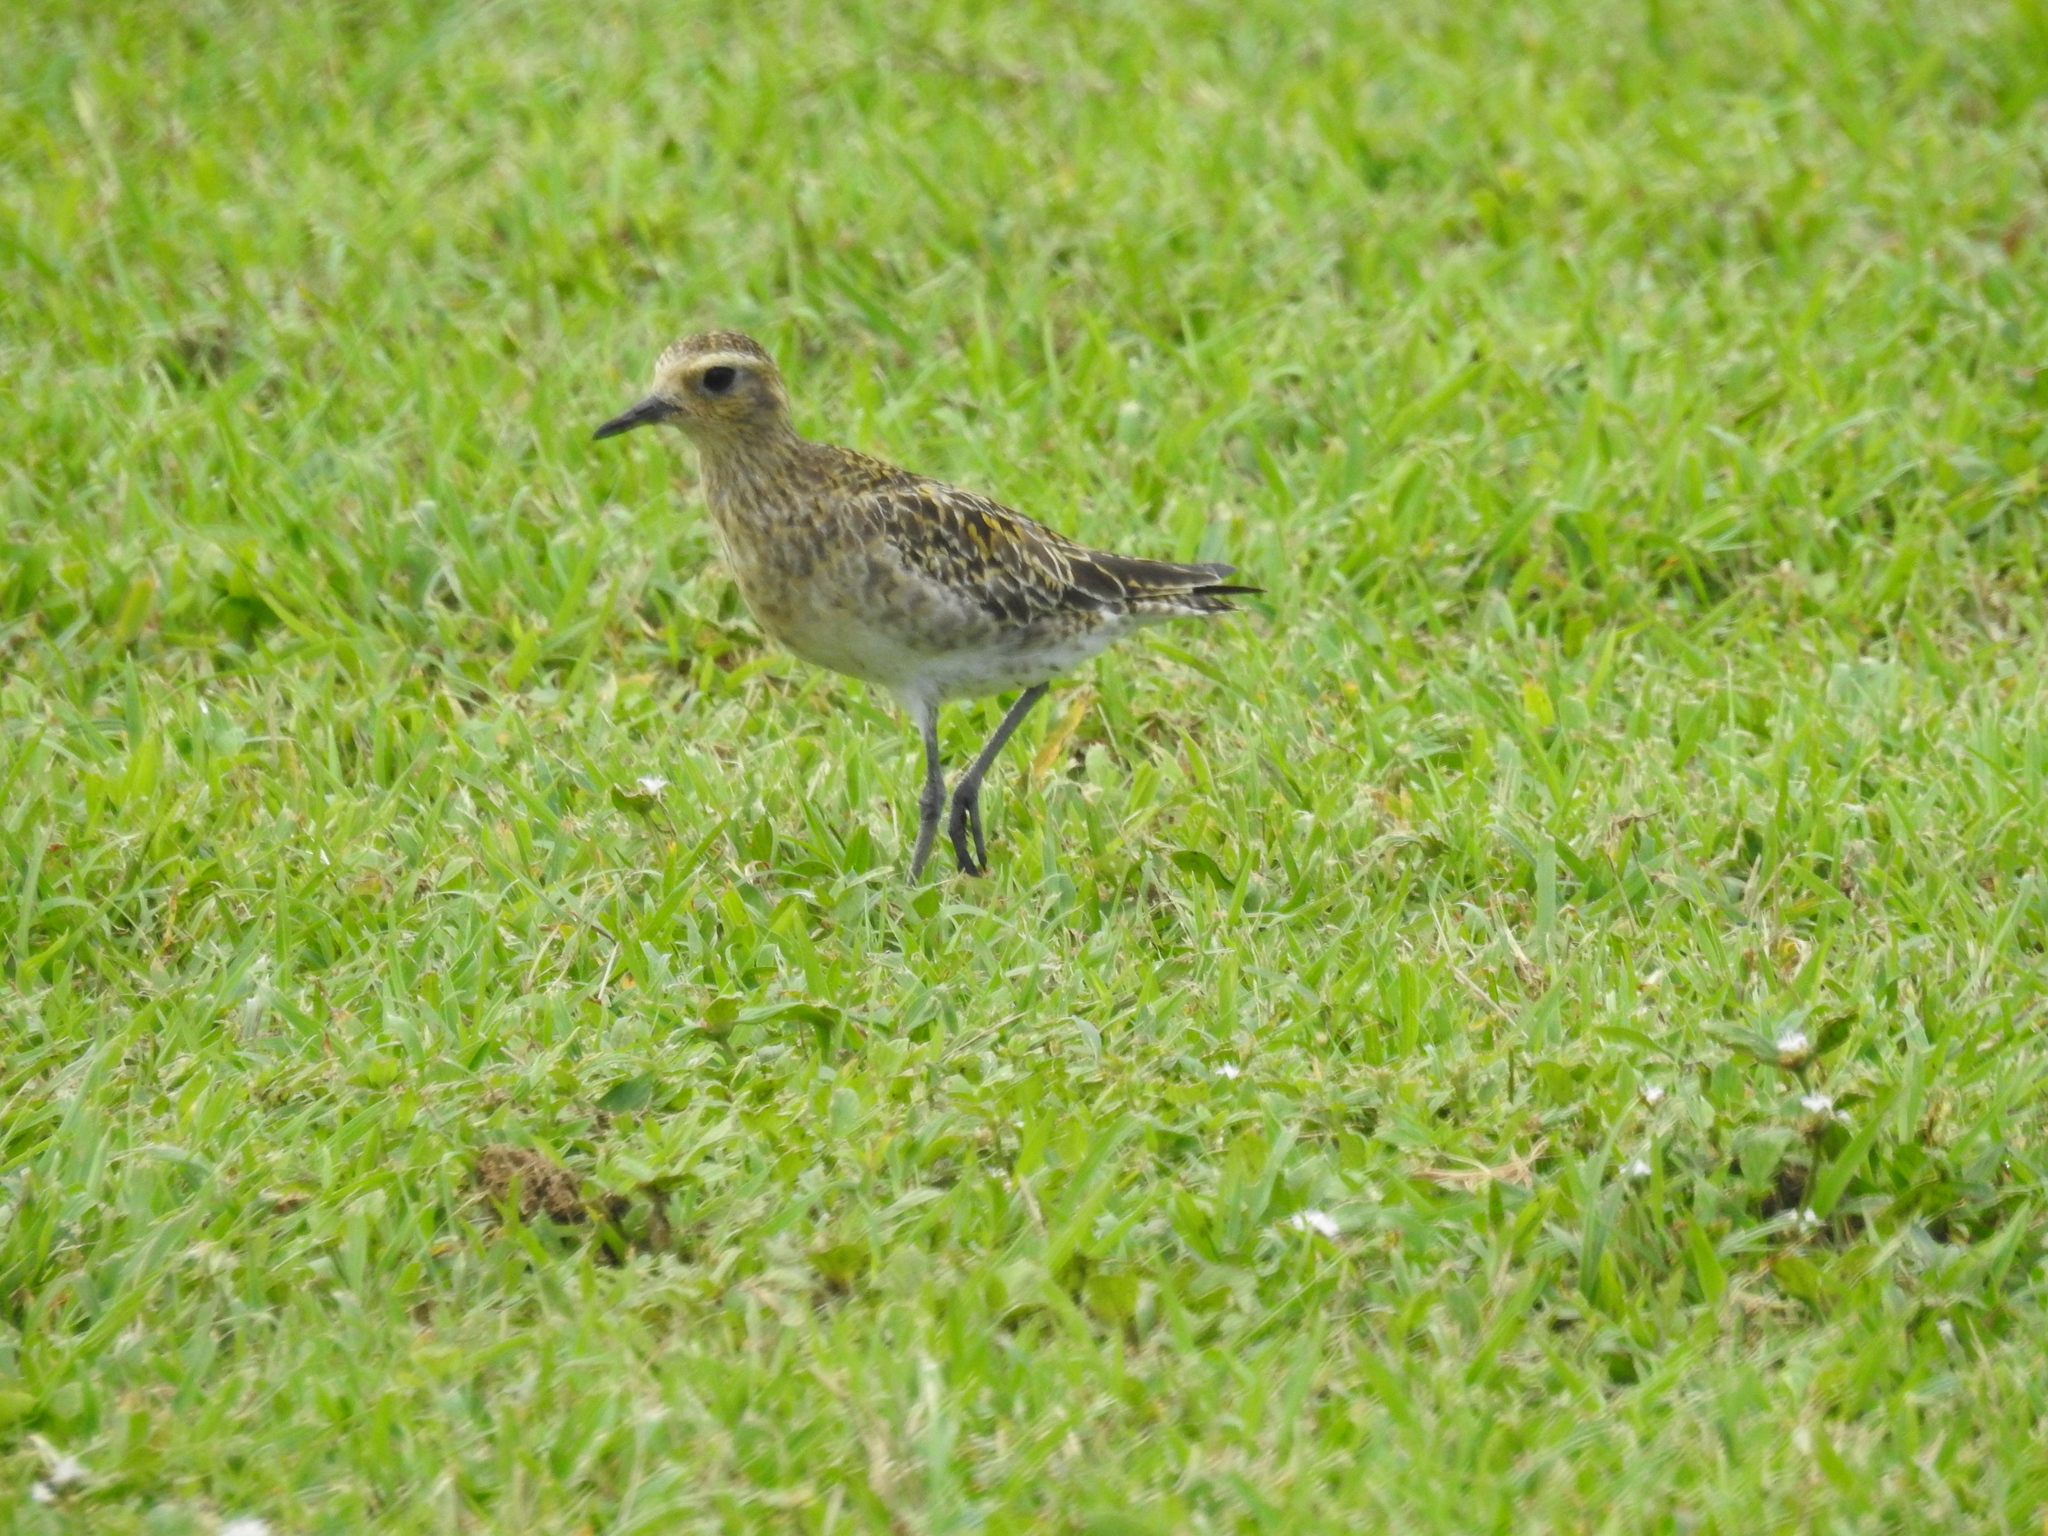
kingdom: Animalia
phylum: Chordata
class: Aves
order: Charadriiformes
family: Charadriidae
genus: Pluvialis
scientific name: Pluvialis fulva
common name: Pacific golden plover
